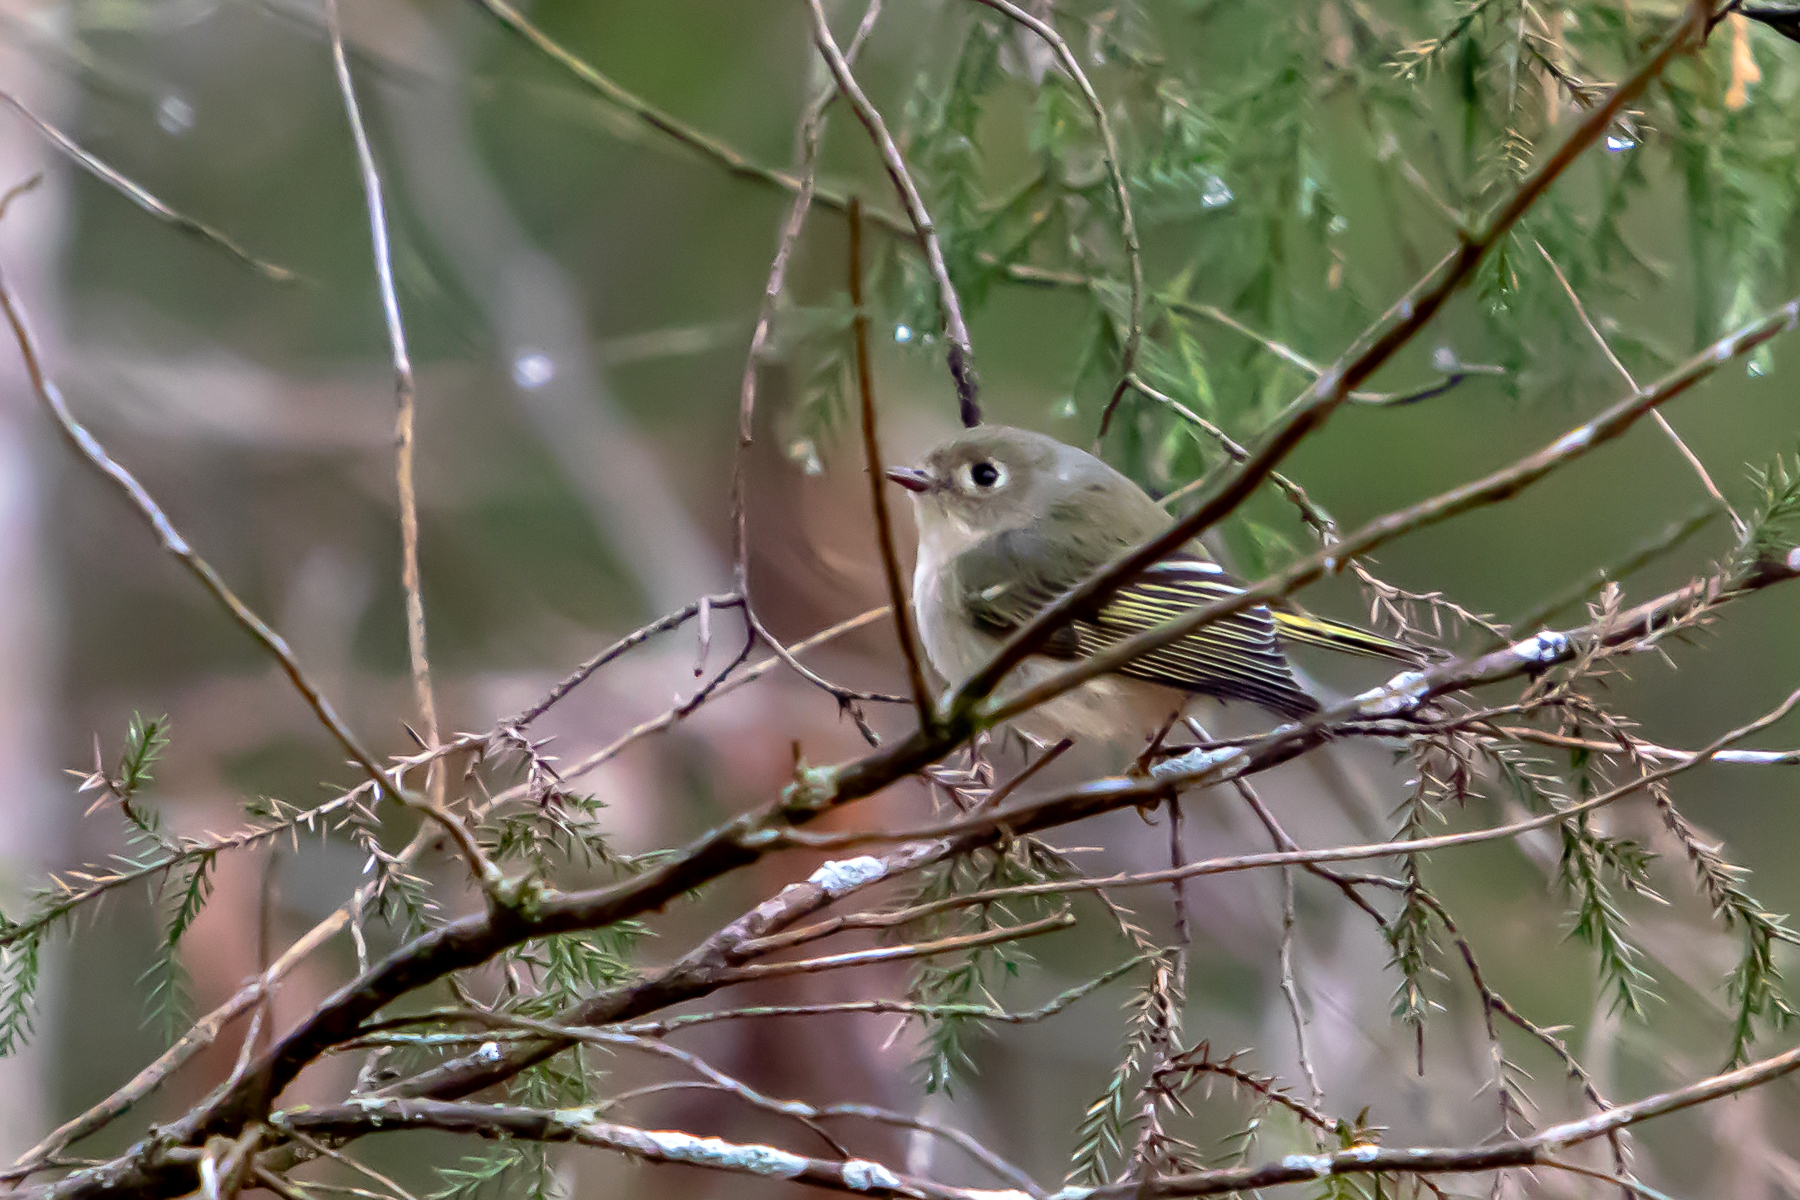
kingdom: Animalia
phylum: Chordata
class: Aves
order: Passeriformes
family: Regulidae
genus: Regulus
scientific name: Regulus calendula
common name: Ruby-crowned kinglet
